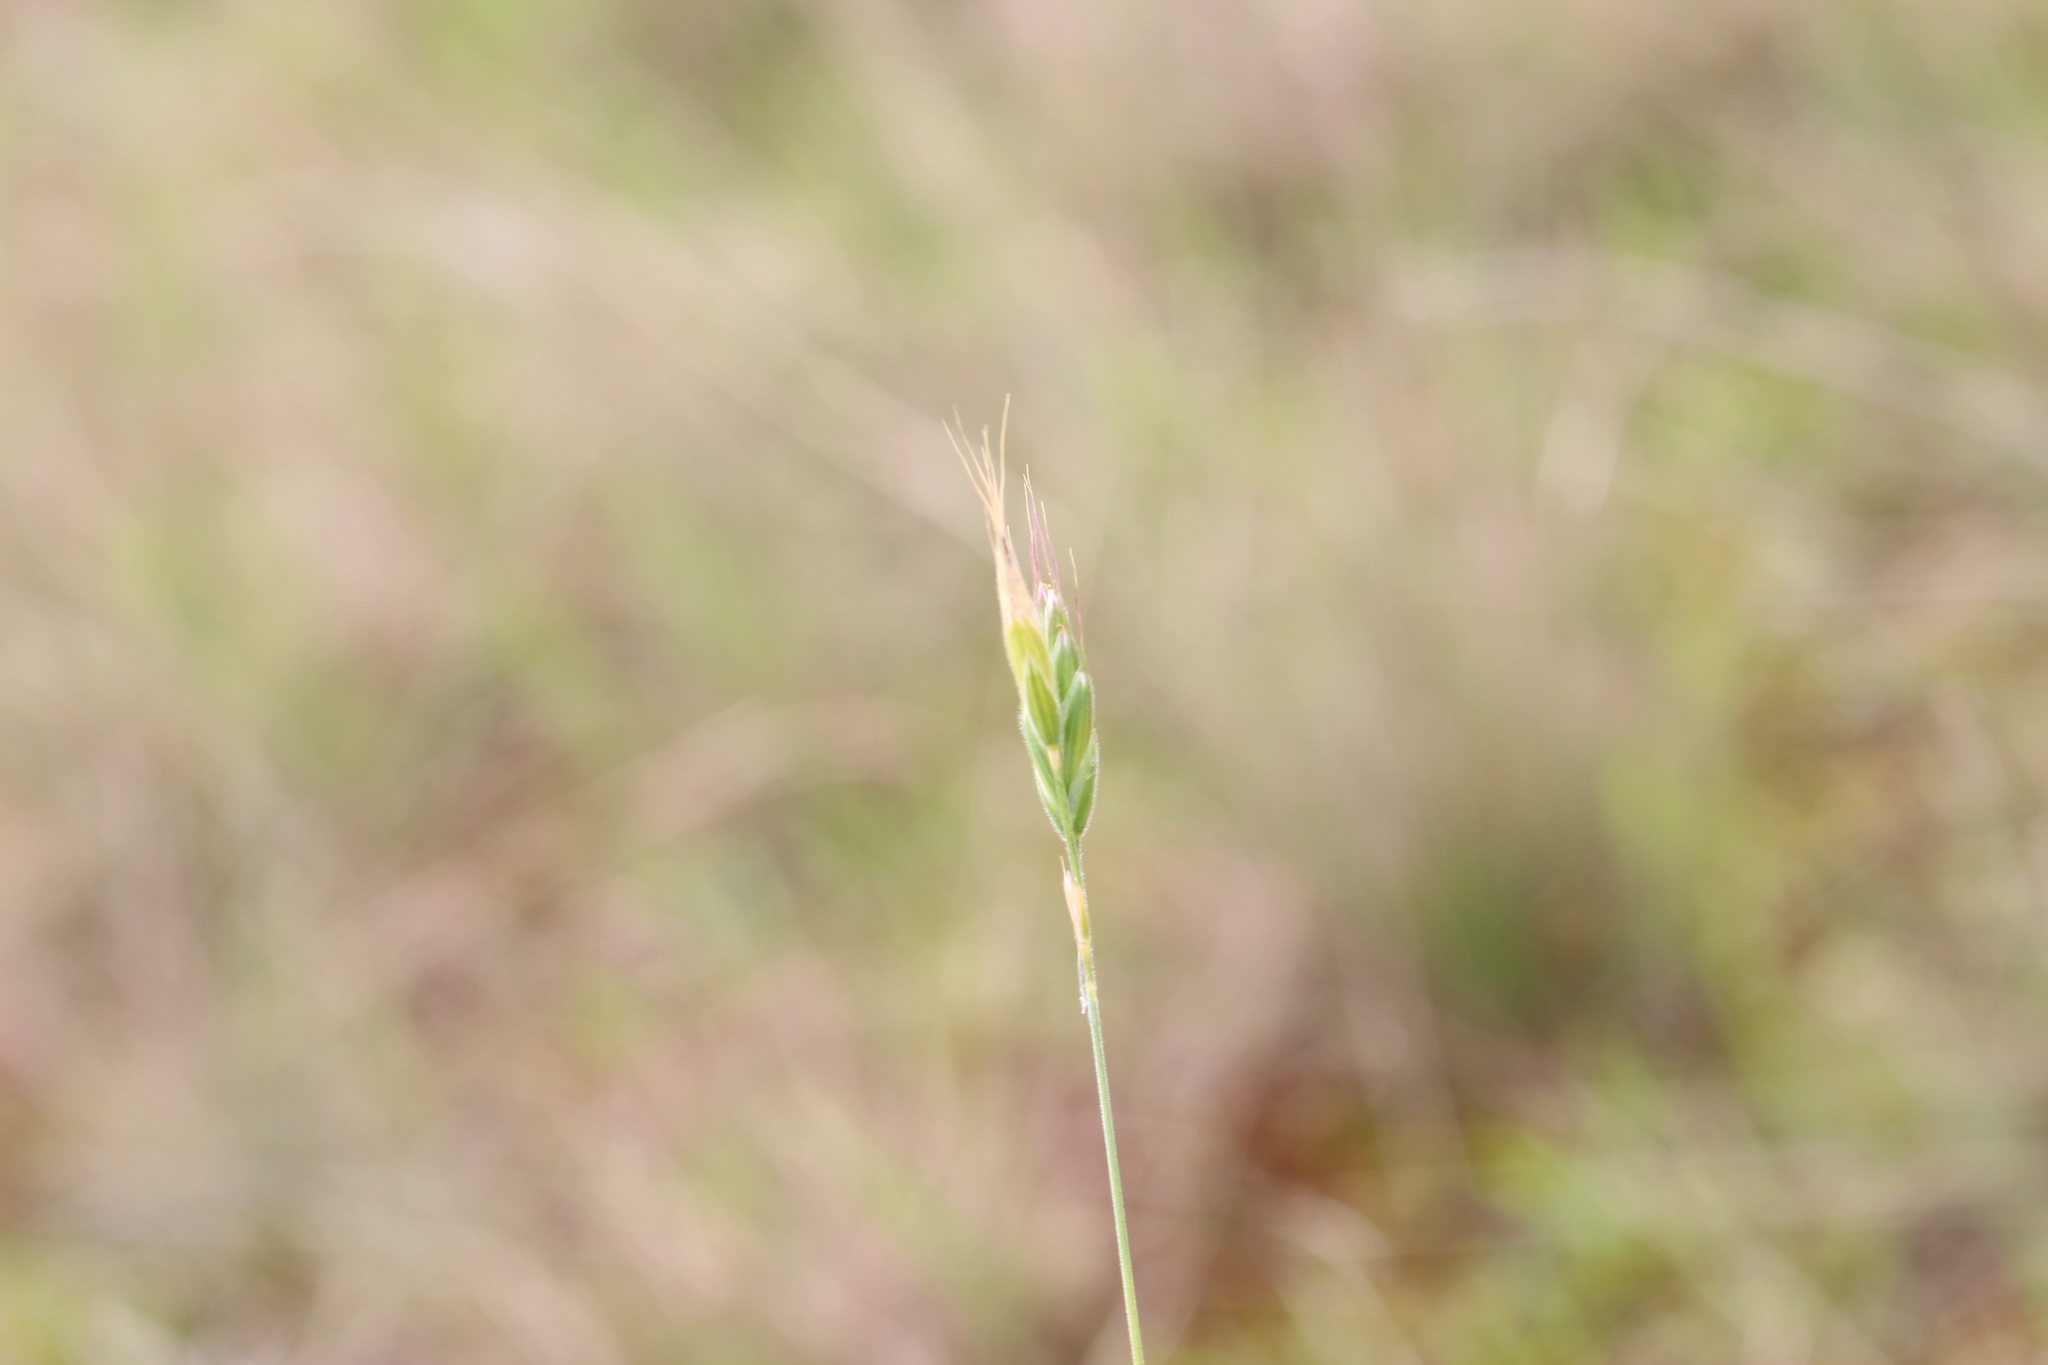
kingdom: Plantae
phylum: Tracheophyta
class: Liliopsida
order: Poales
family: Poaceae
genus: Bromus
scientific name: Bromus hordeaceus
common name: Soft brome
